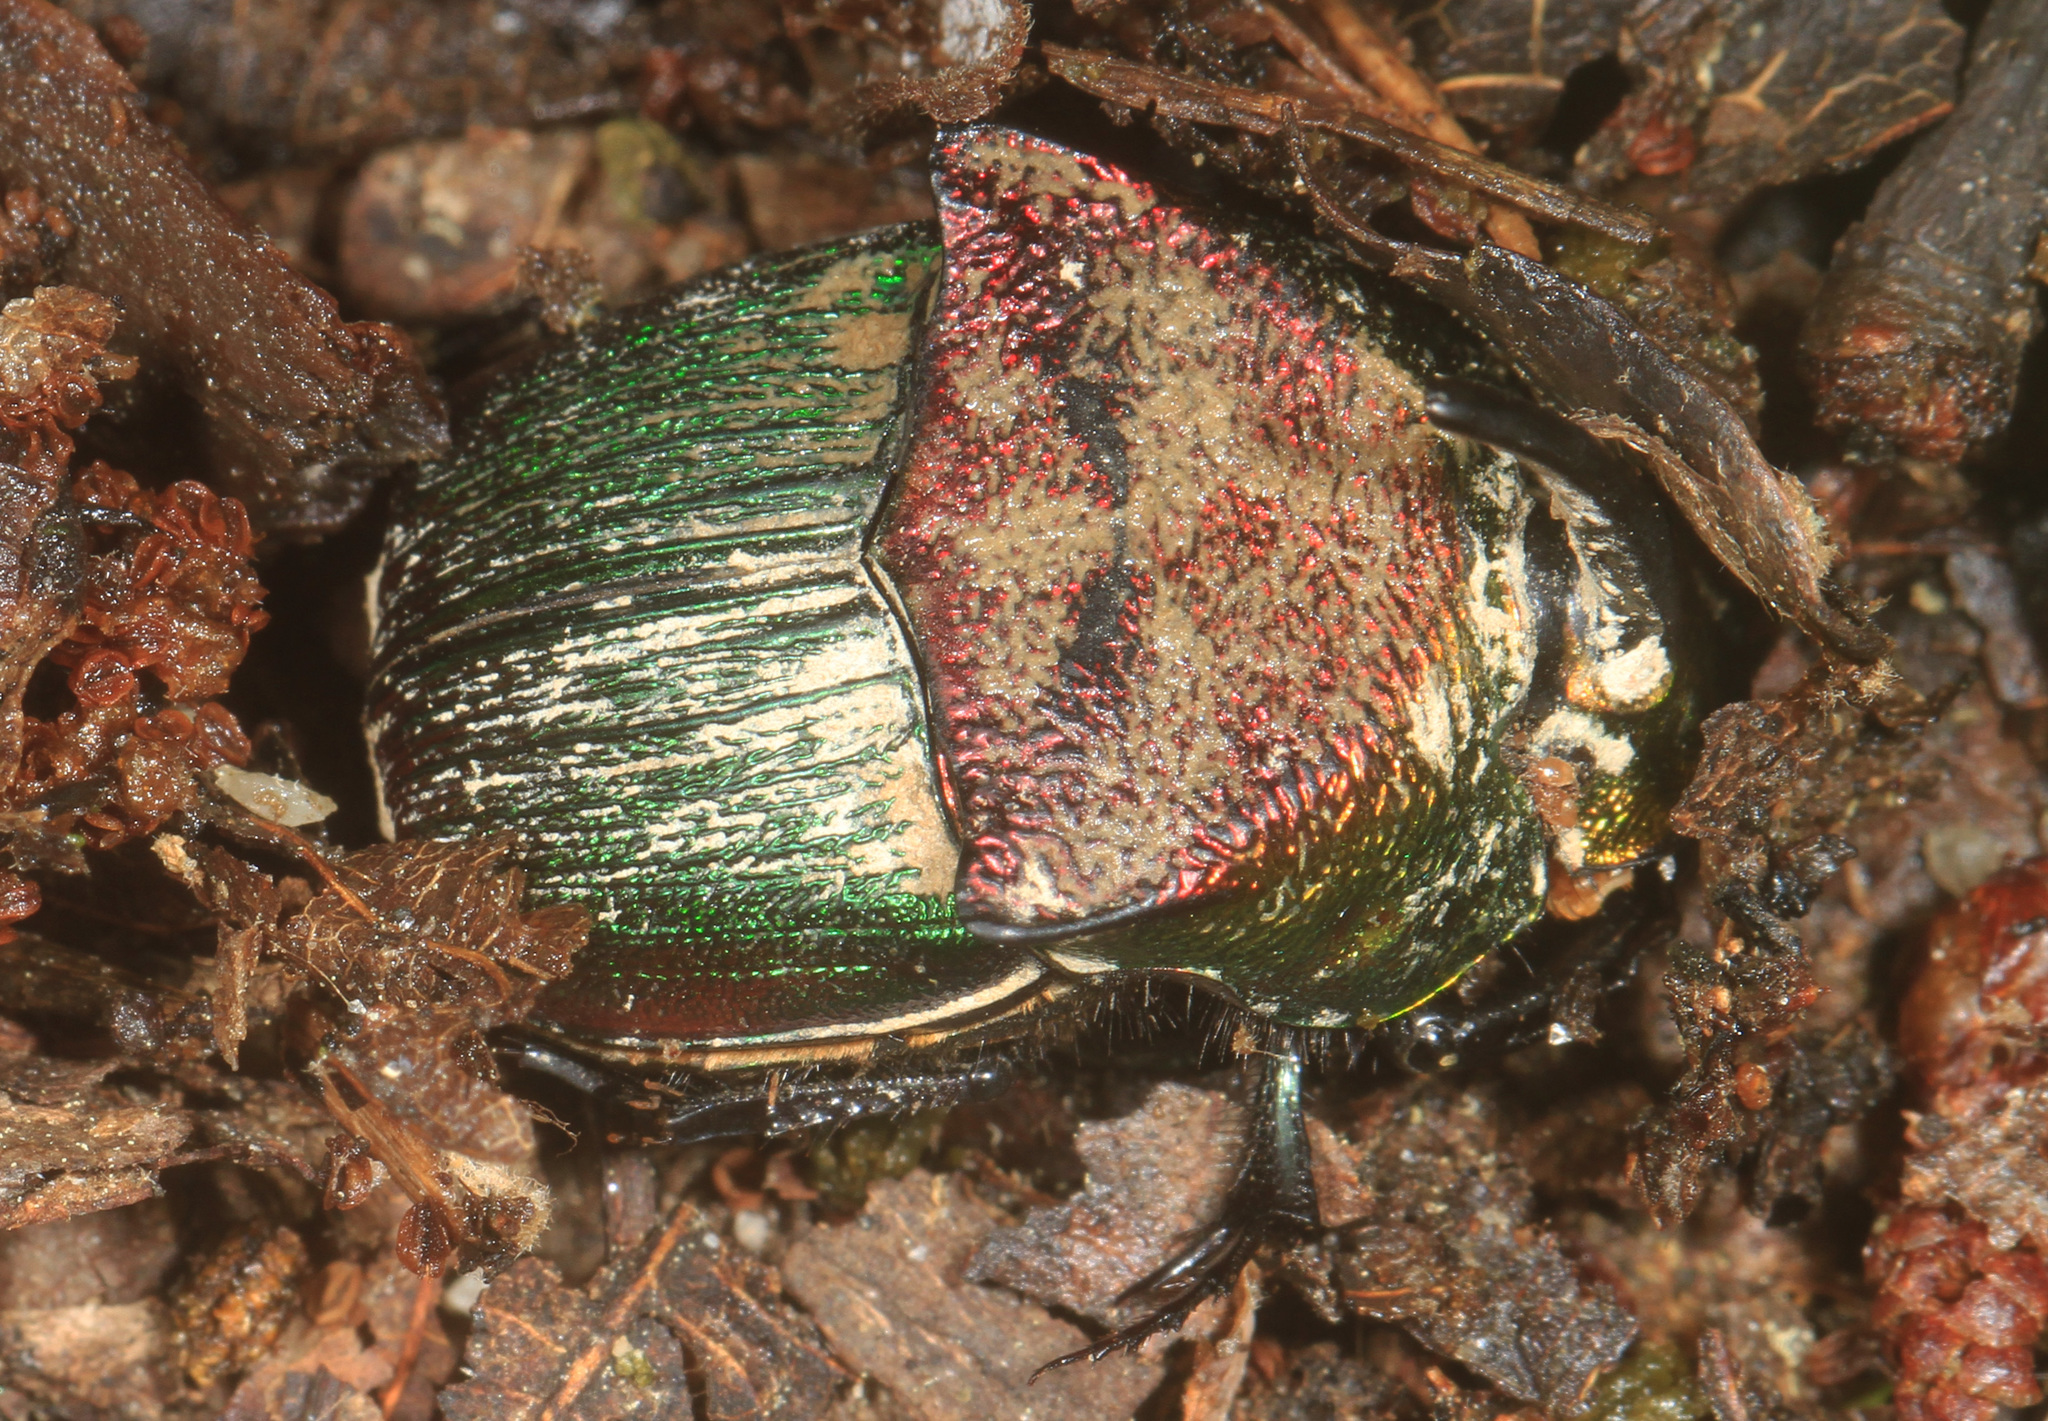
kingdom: Animalia
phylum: Arthropoda
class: Insecta
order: Coleoptera
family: Scarabaeidae
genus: Phanaeus
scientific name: Phanaeus vindex
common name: Rainbow scarab
